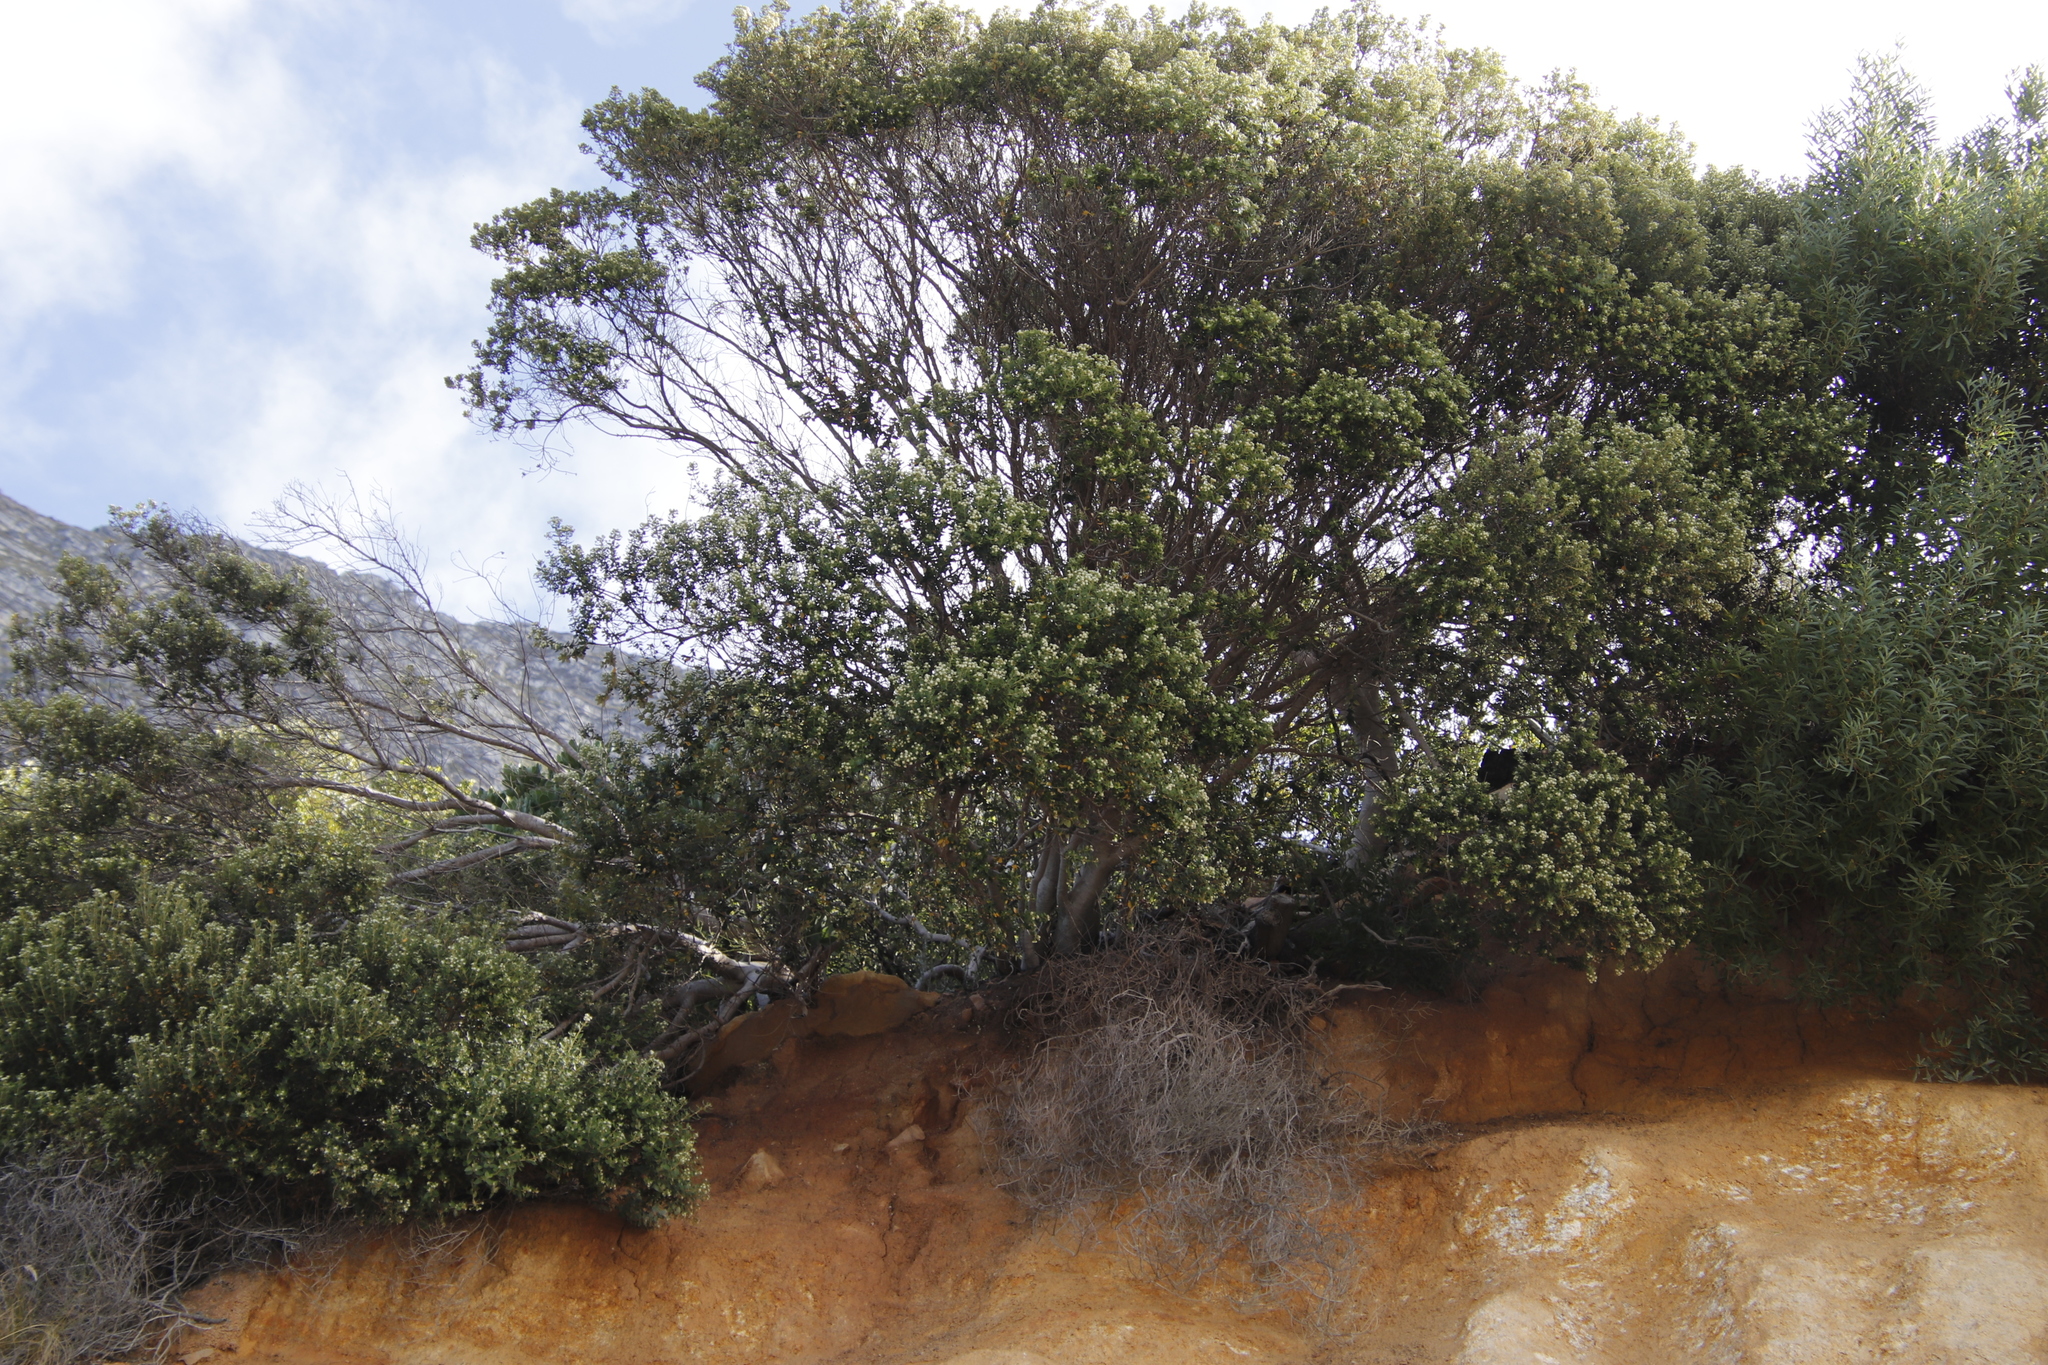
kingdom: Plantae
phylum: Tracheophyta
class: Magnoliopsida
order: Rosales
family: Rhamnaceae
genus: Phylica
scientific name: Phylica buxifolia
